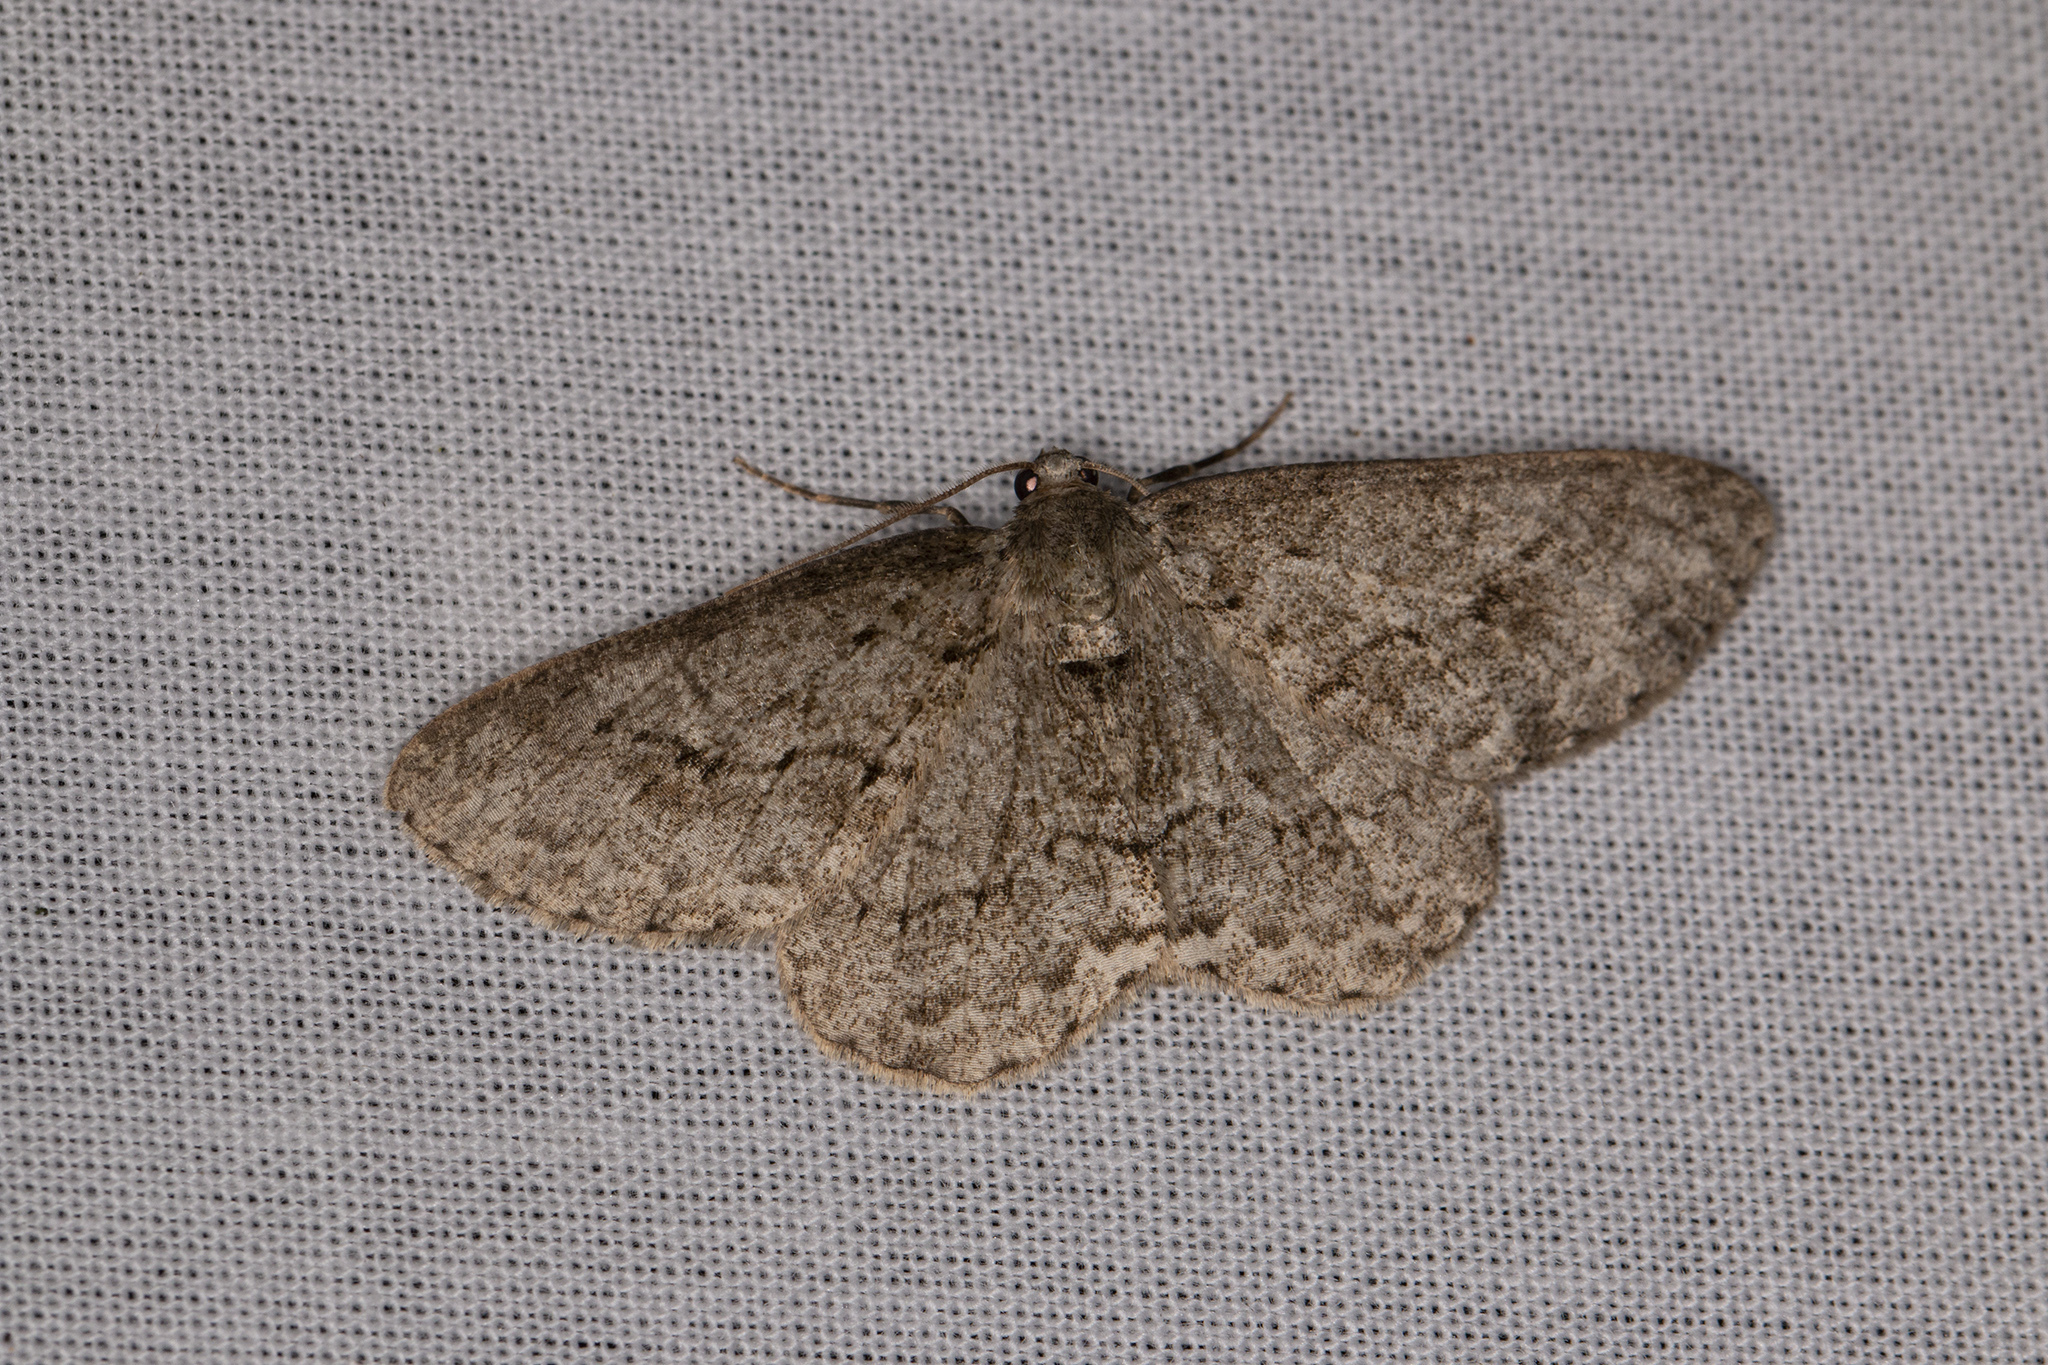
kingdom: Animalia
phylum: Arthropoda
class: Insecta
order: Lepidoptera
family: Geometridae
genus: Ectropis
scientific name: Ectropis crepuscularia
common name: Engrailed
